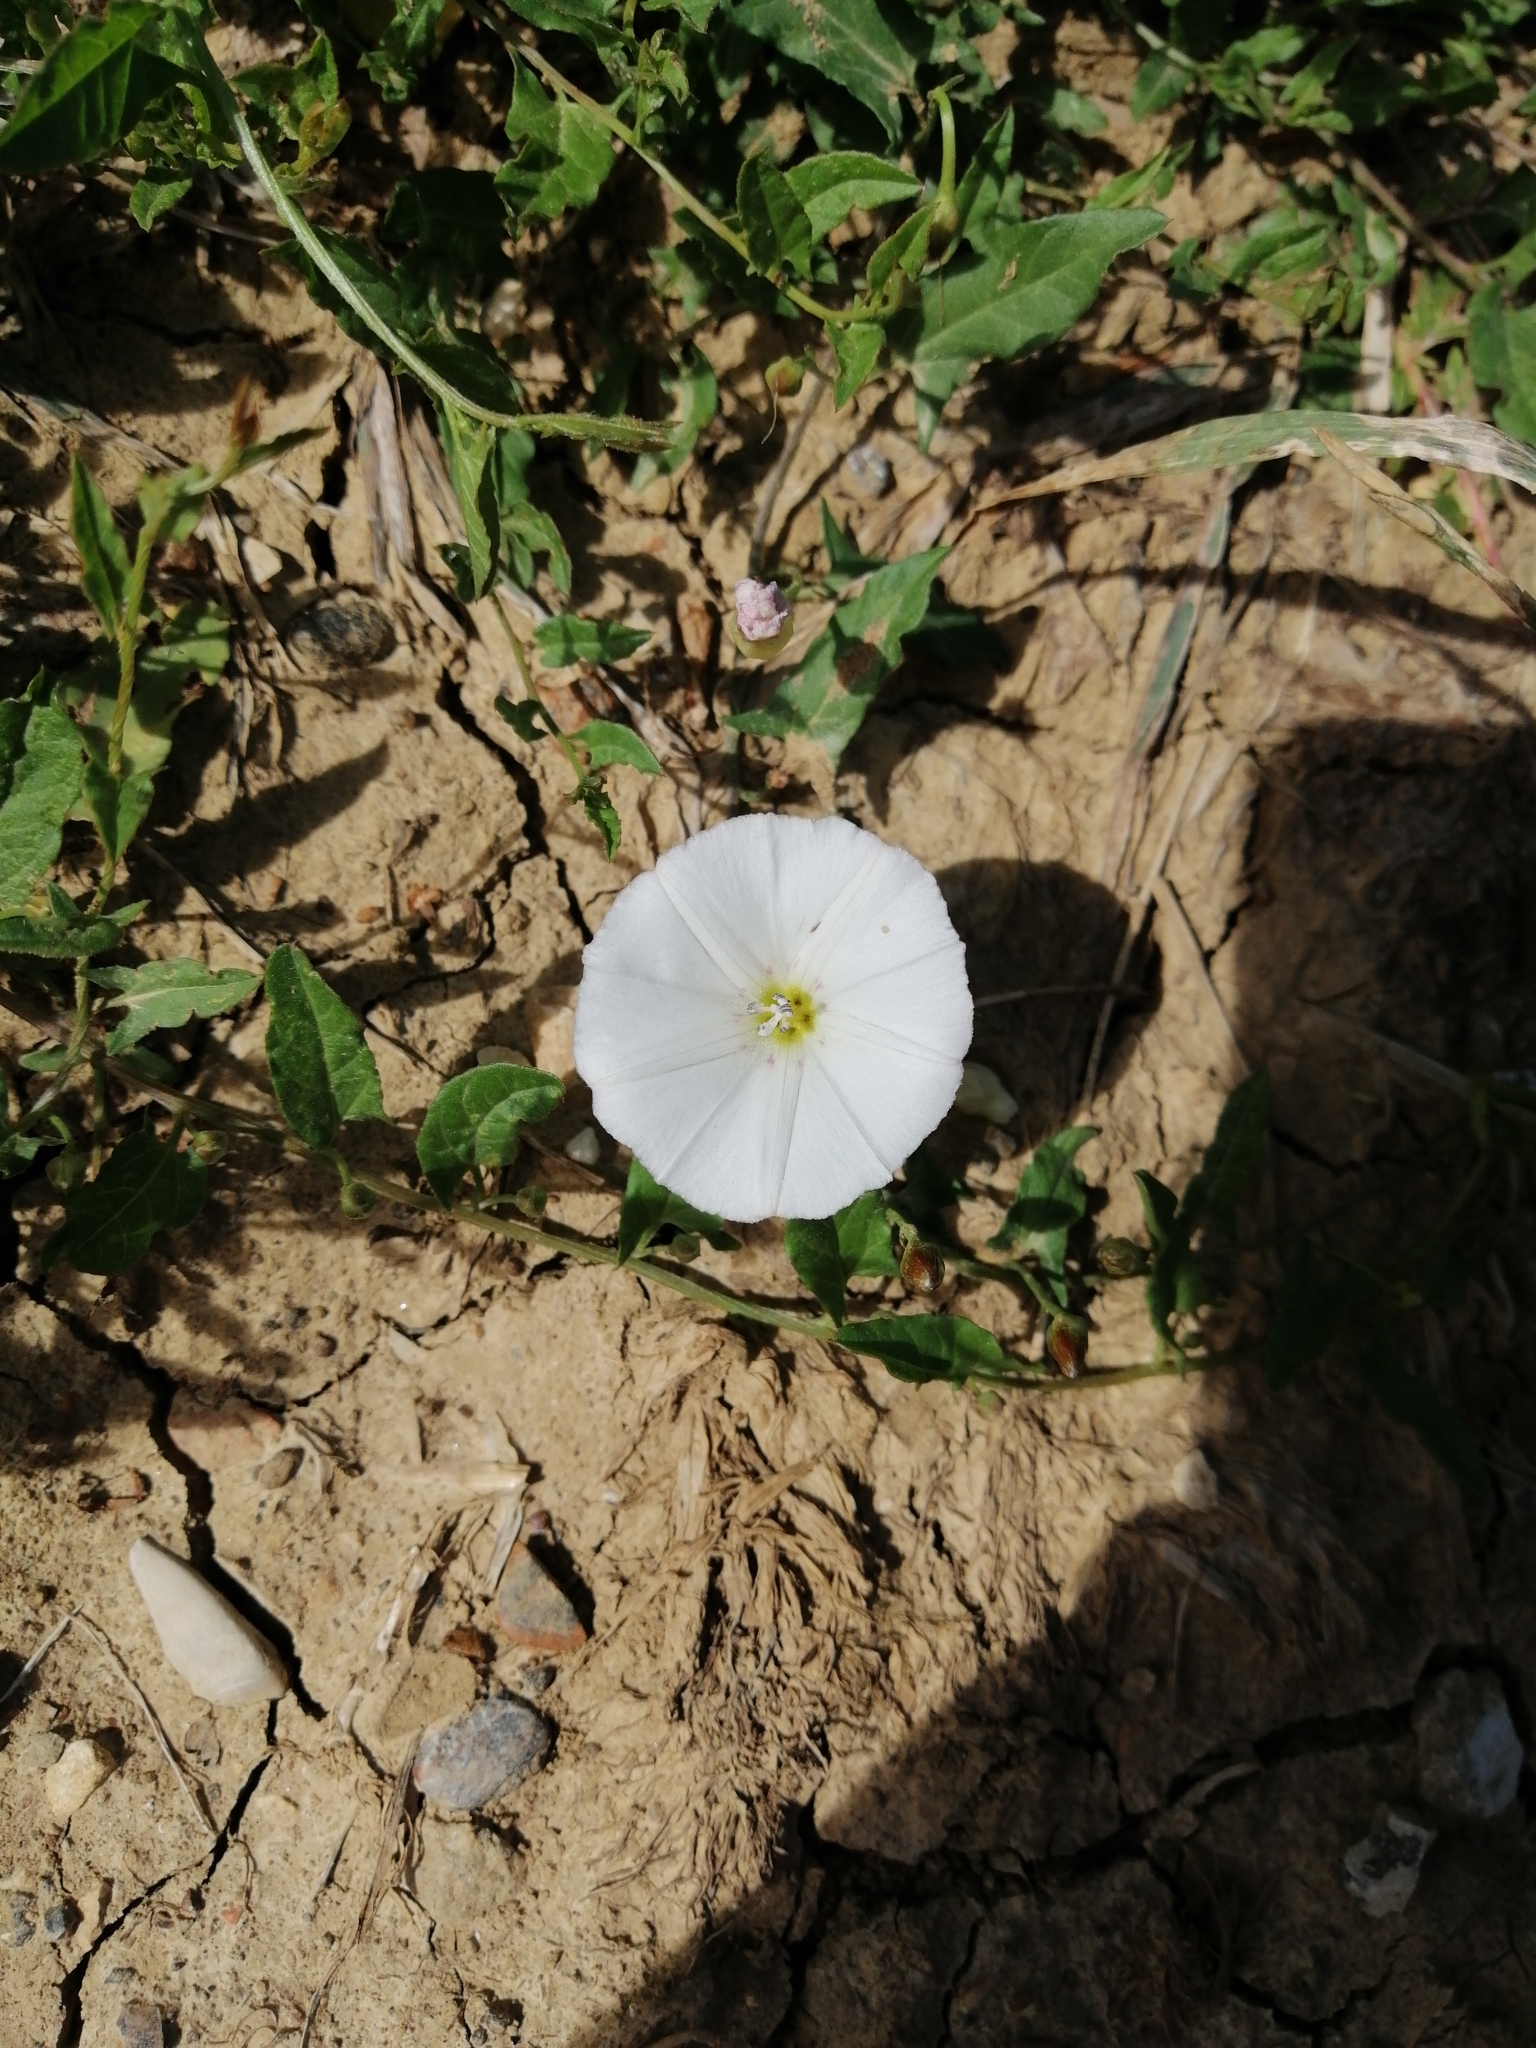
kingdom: Plantae
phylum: Tracheophyta
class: Magnoliopsida
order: Solanales
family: Convolvulaceae
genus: Convolvulus
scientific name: Convolvulus arvensis
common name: Field bindweed
